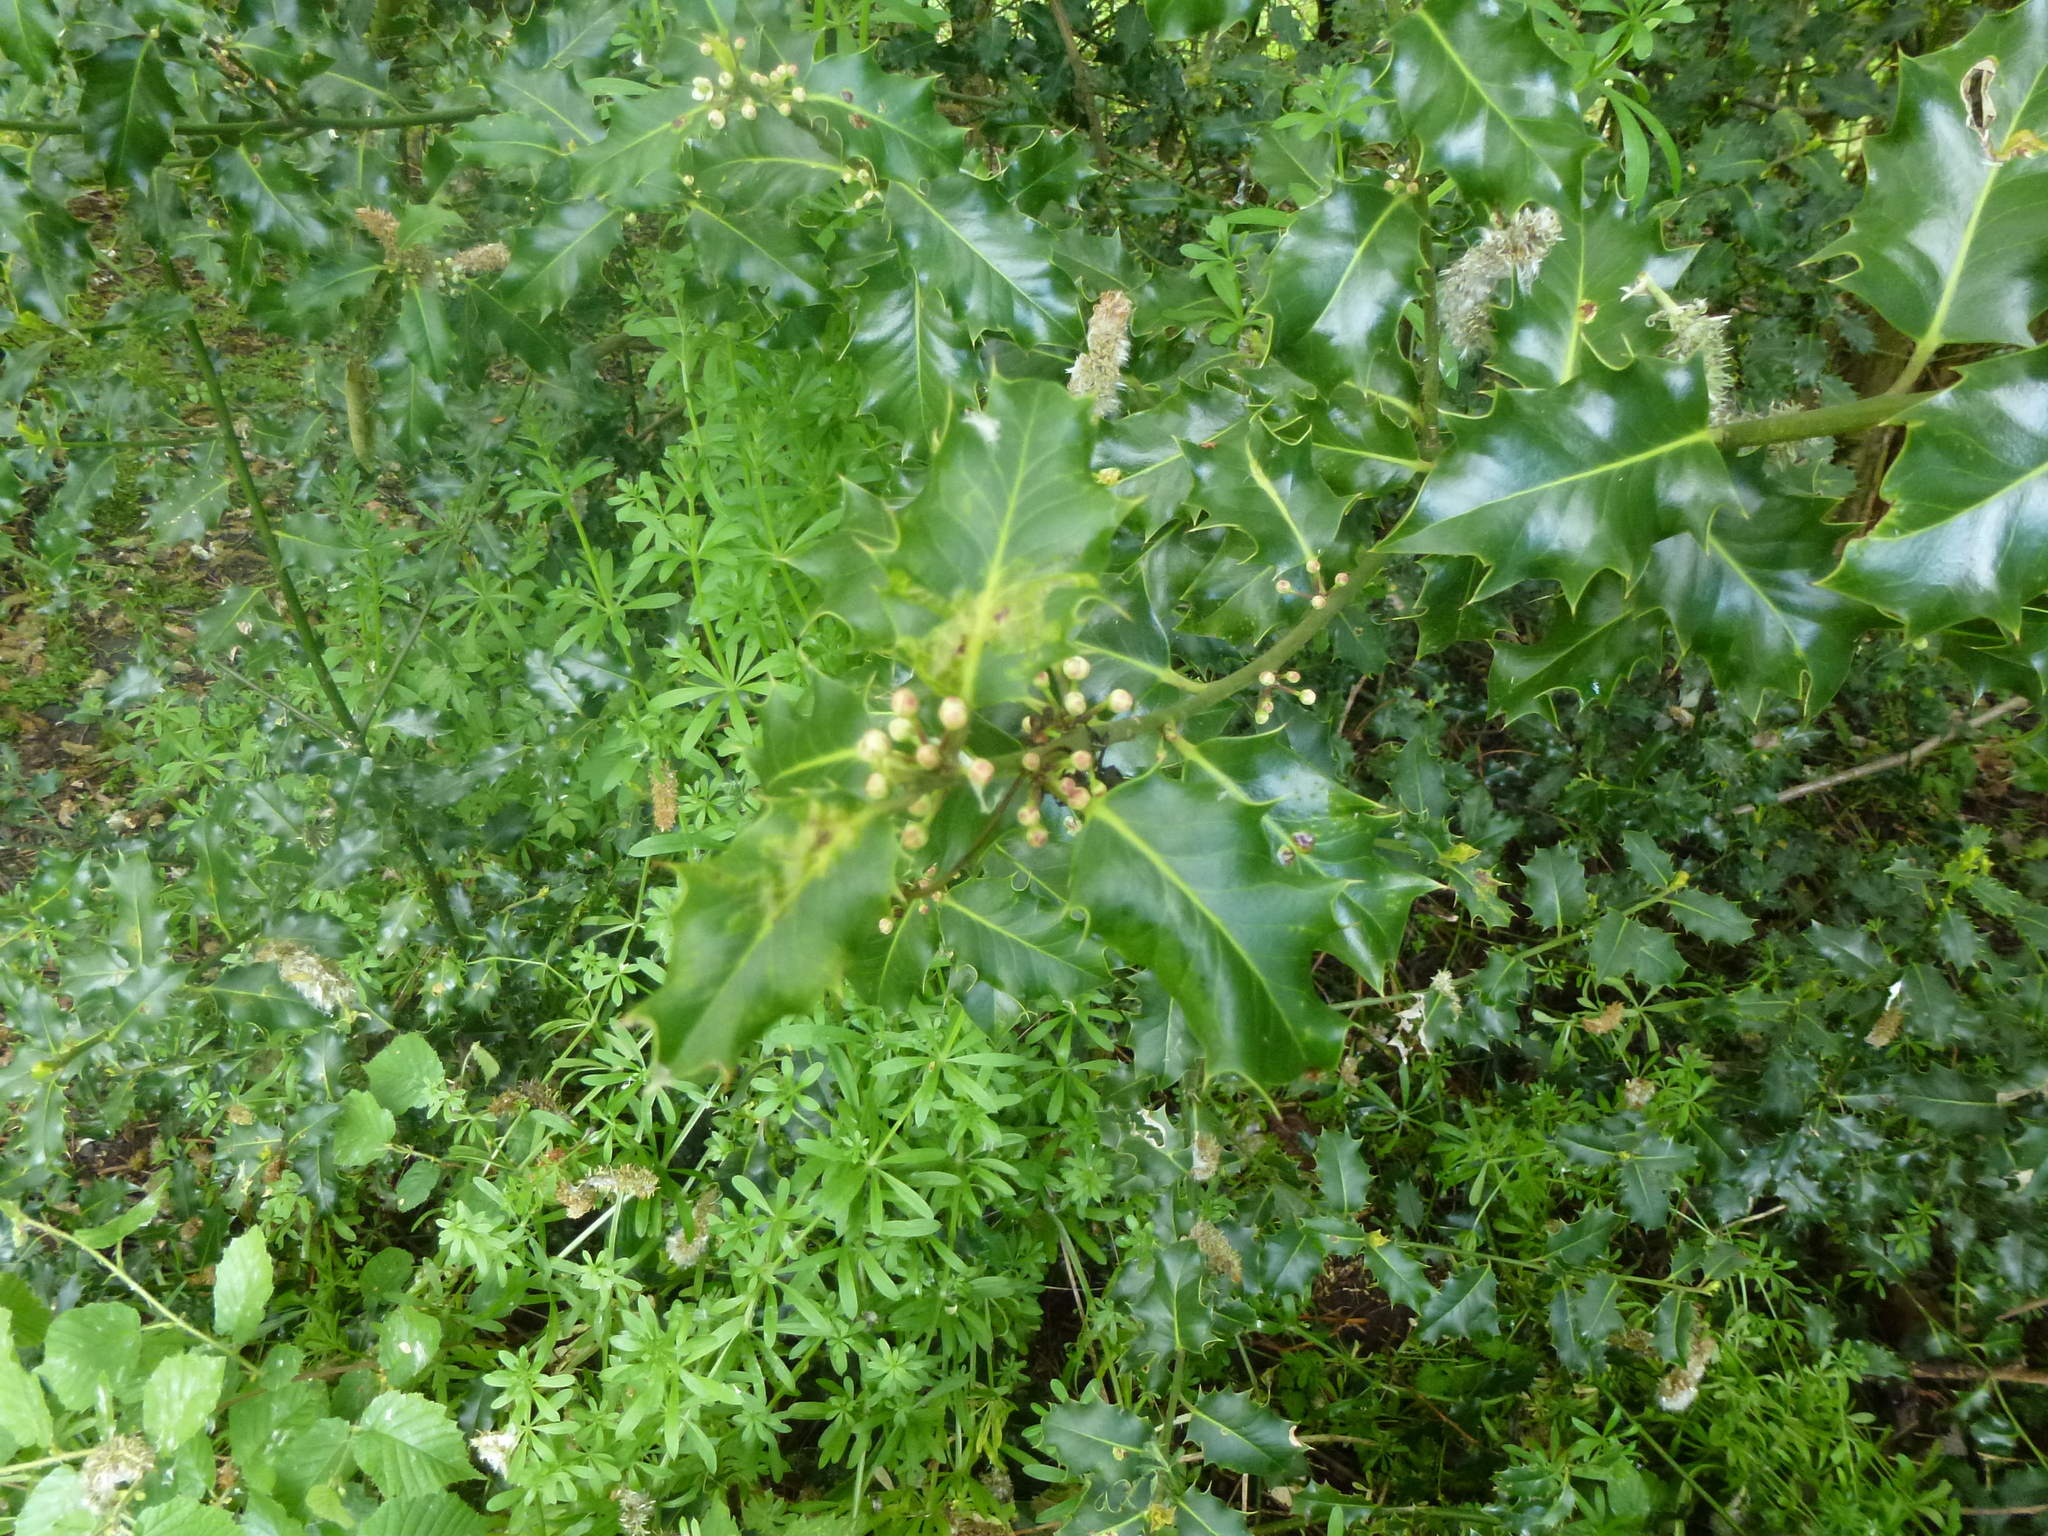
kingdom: Animalia
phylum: Arthropoda
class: Insecta
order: Diptera
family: Agromyzidae
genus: Phytomyza
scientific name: Phytomyza ilicis
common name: Holly leafminer
